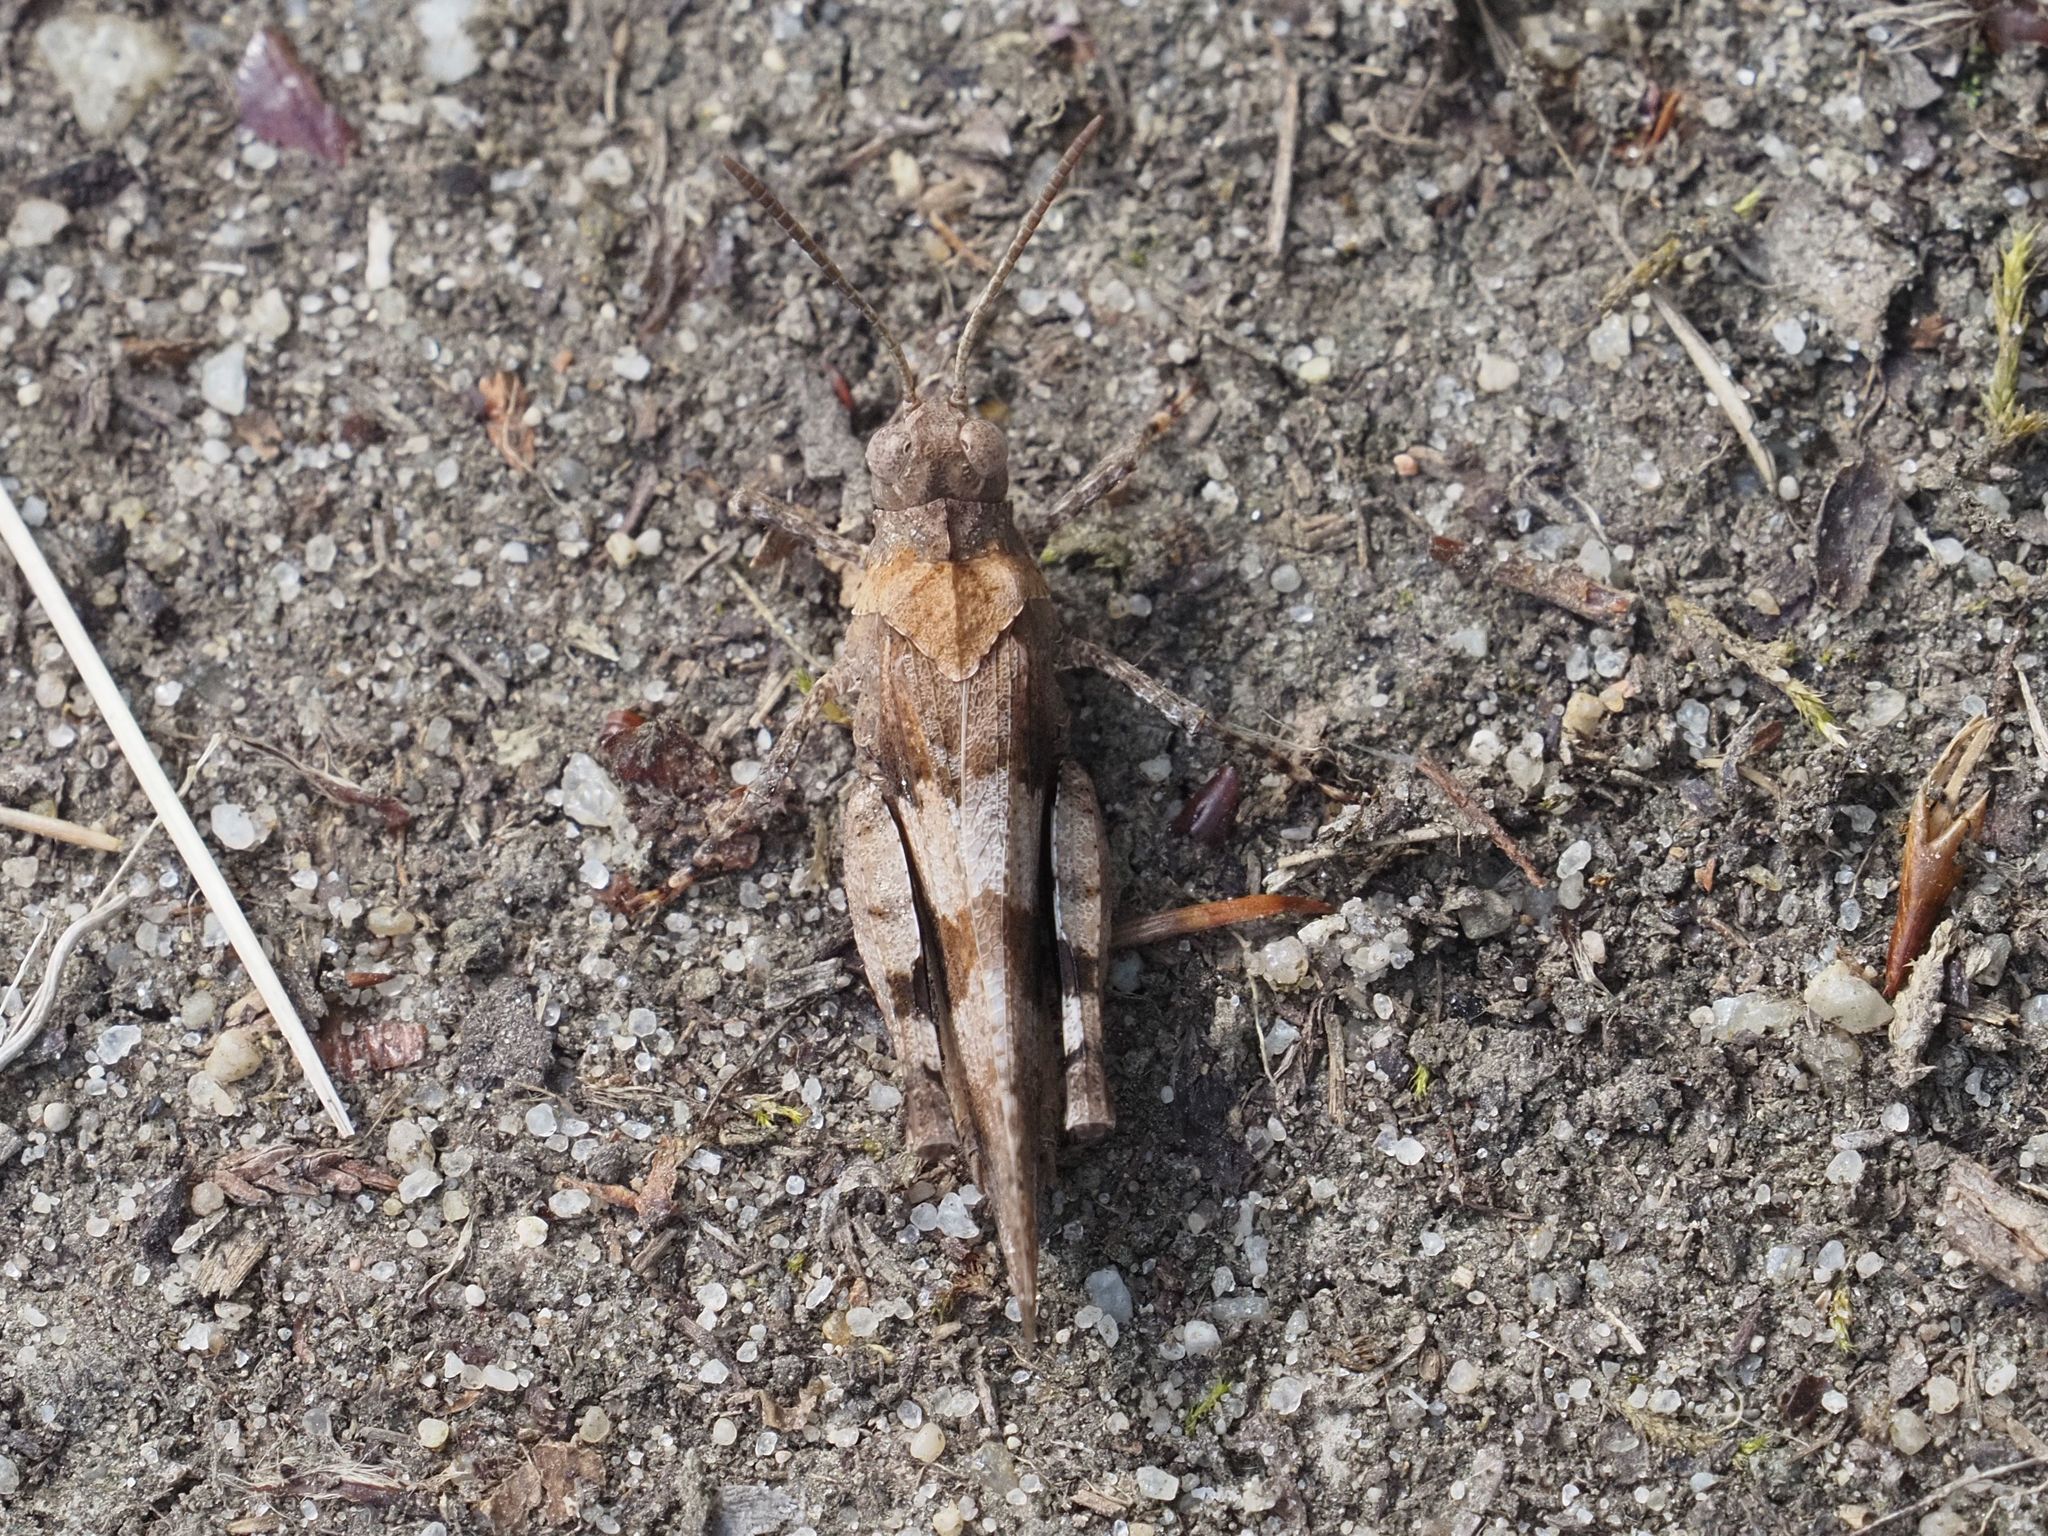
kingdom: Animalia
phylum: Arthropoda
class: Insecta
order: Orthoptera
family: Acrididae
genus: Oedipoda
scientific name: Oedipoda caerulescens
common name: Blue-winged grasshopper
